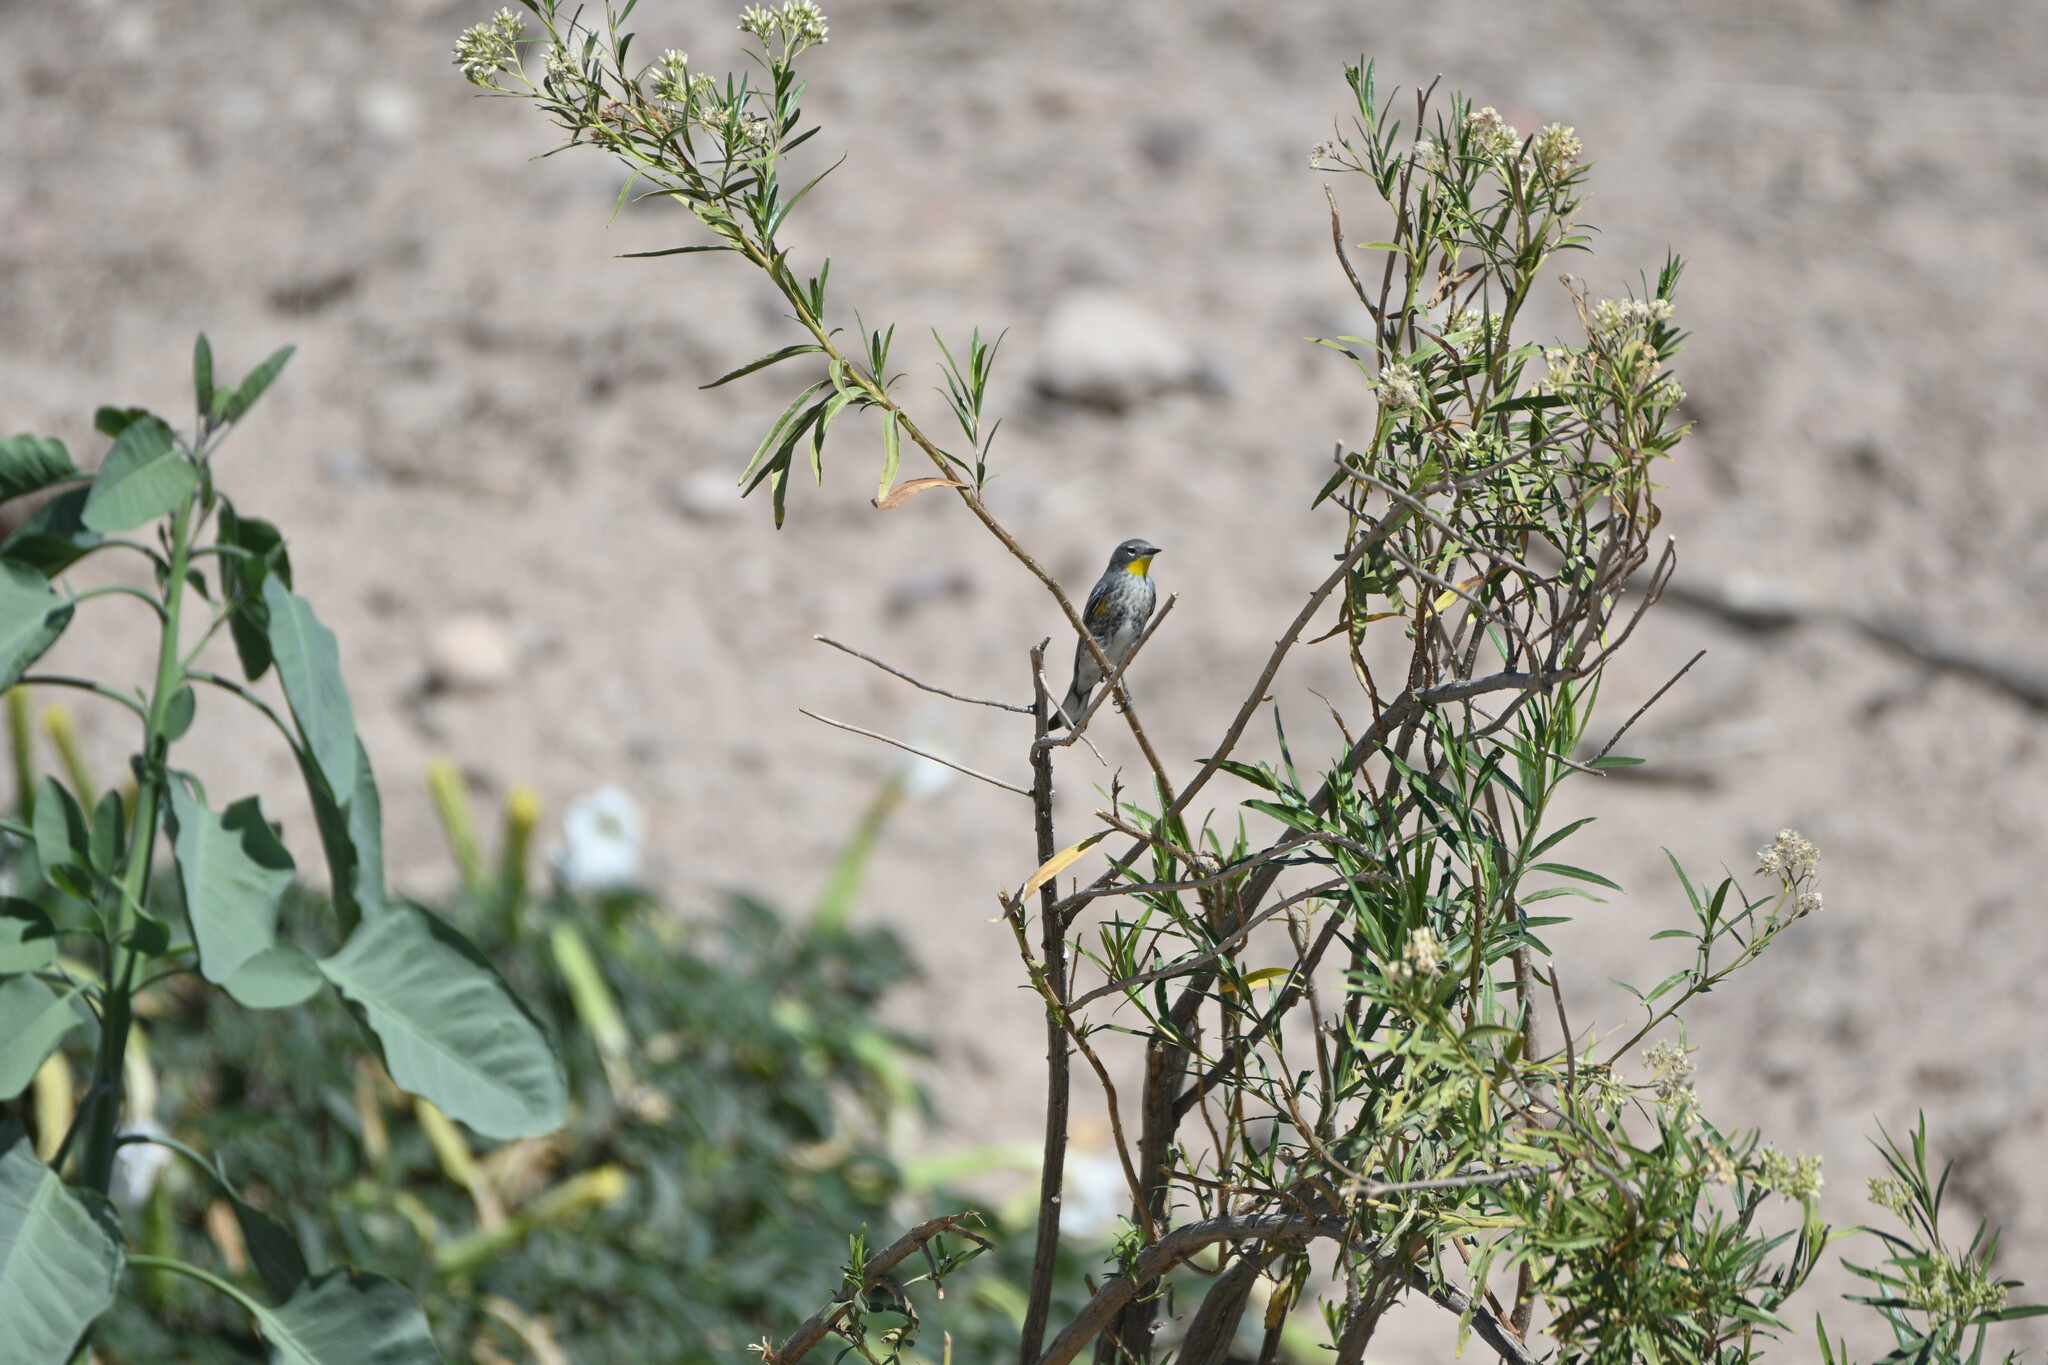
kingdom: Animalia
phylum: Chordata
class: Aves
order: Passeriformes
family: Parulidae
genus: Setophaga
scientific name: Setophaga auduboni
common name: Audubon's warbler
